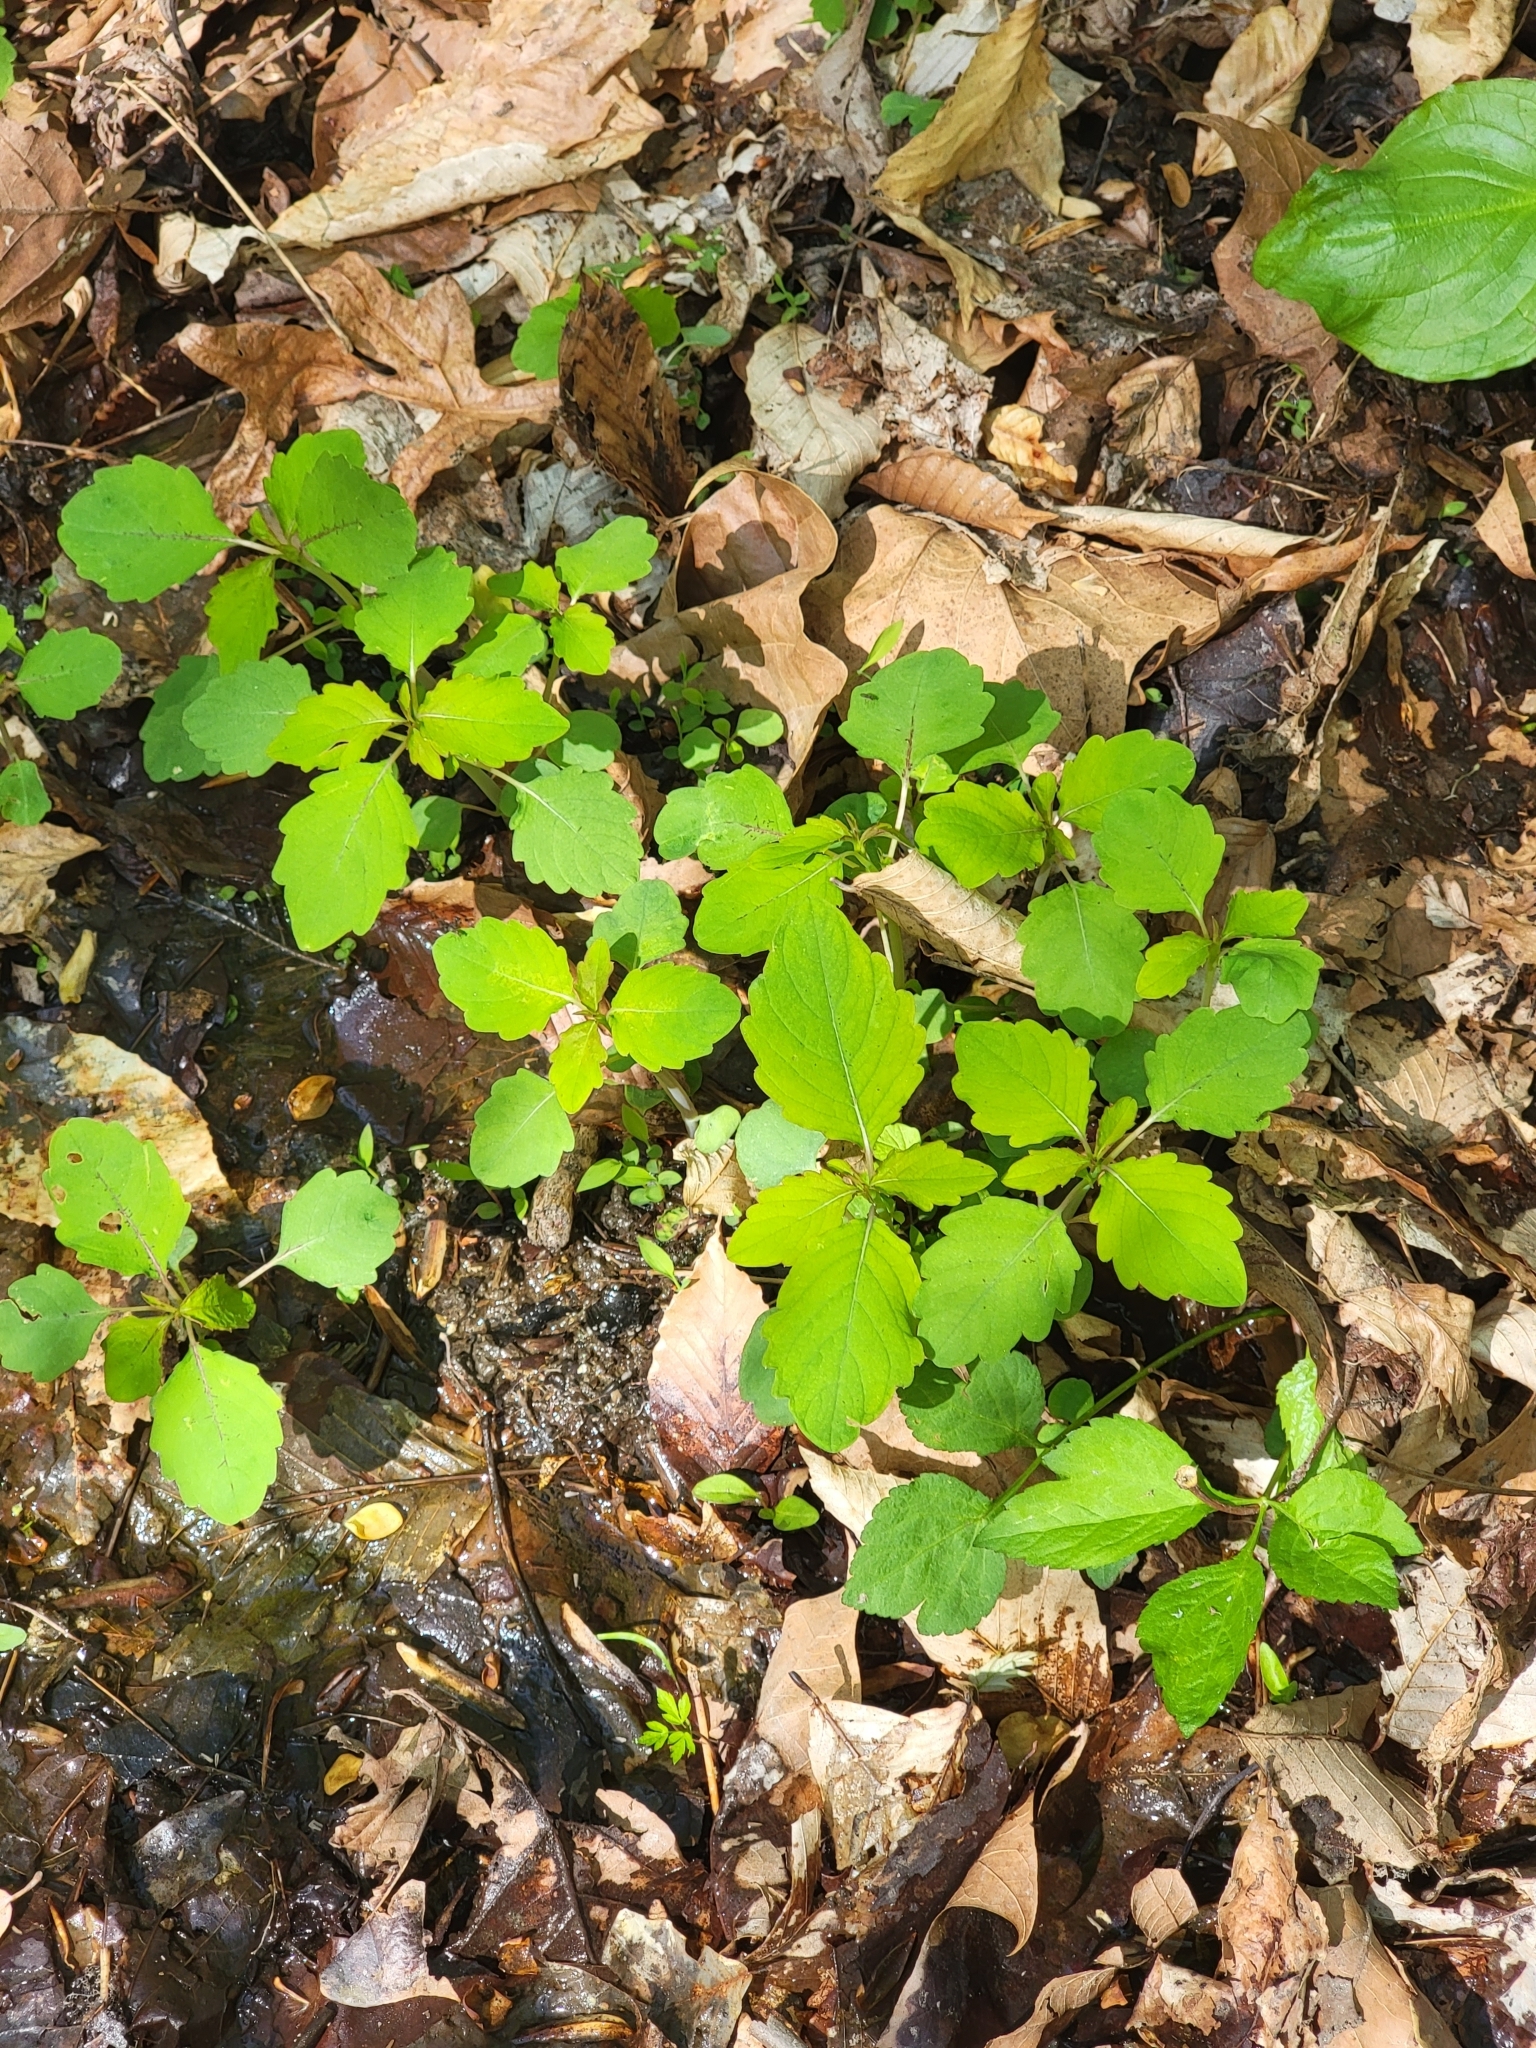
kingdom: Plantae
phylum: Tracheophyta
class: Magnoliopsida
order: Ericales
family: Balsaminaceae
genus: Impatiens
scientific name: Impatiens capensis
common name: Orange balsam
